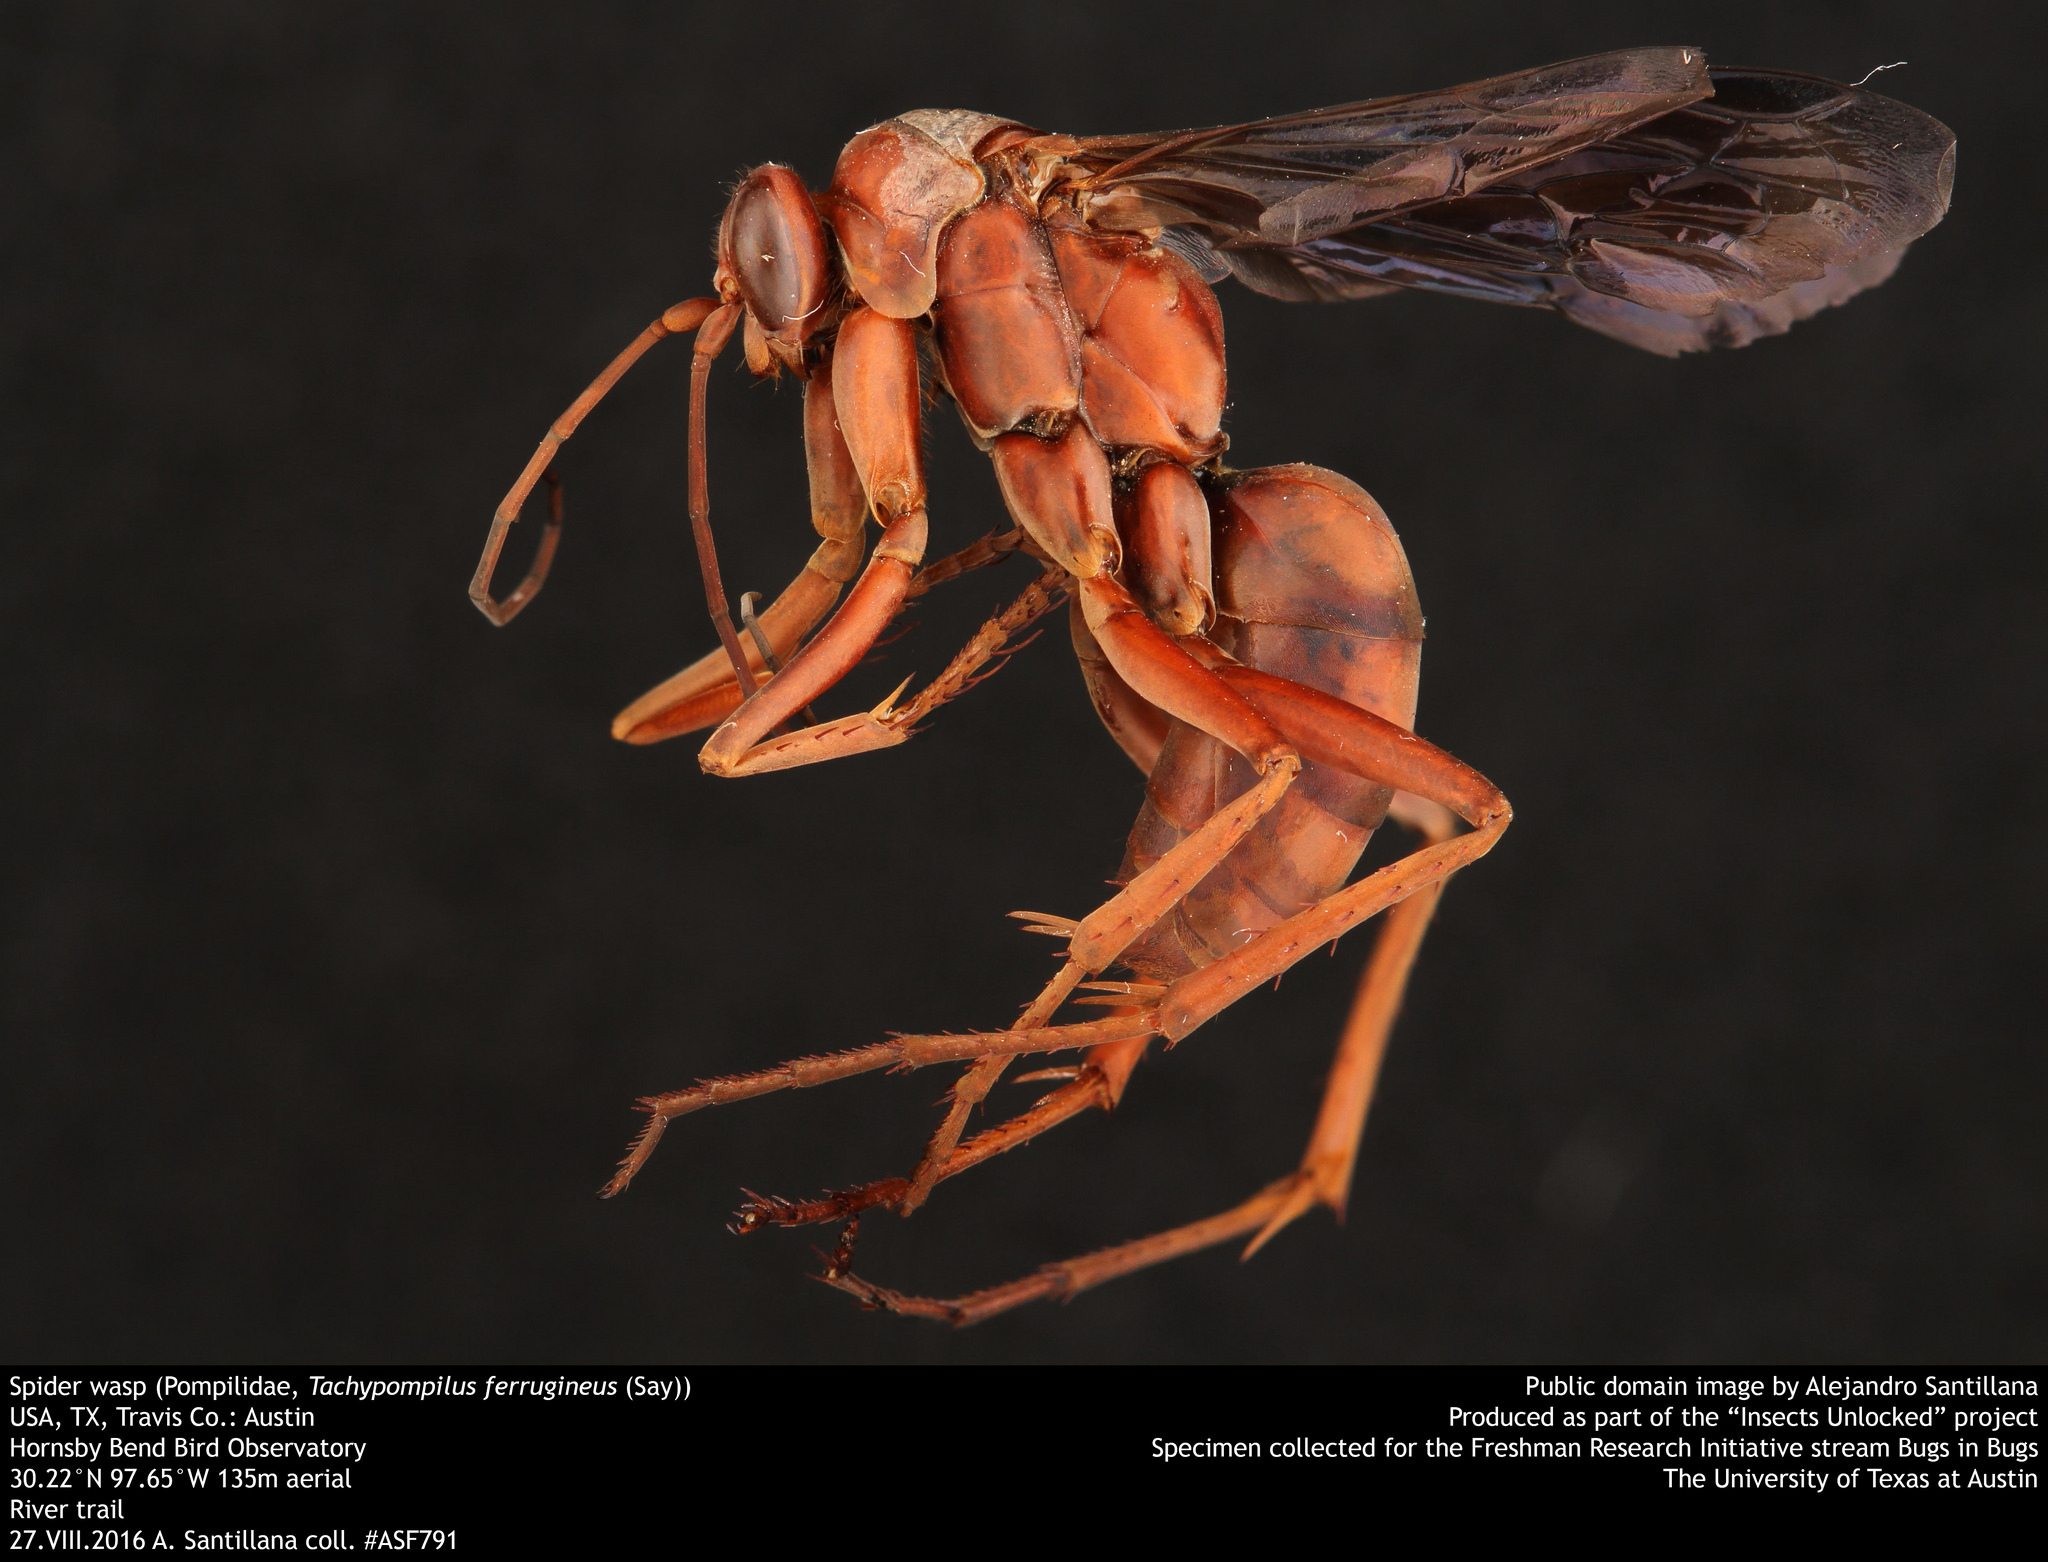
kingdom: Animalia
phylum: Arthropoda
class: Insecta
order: Hymenoptera
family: Pompilidae
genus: Tachypompilus
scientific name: Tachypompilus ferrugineus
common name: Rusty spider wasp
